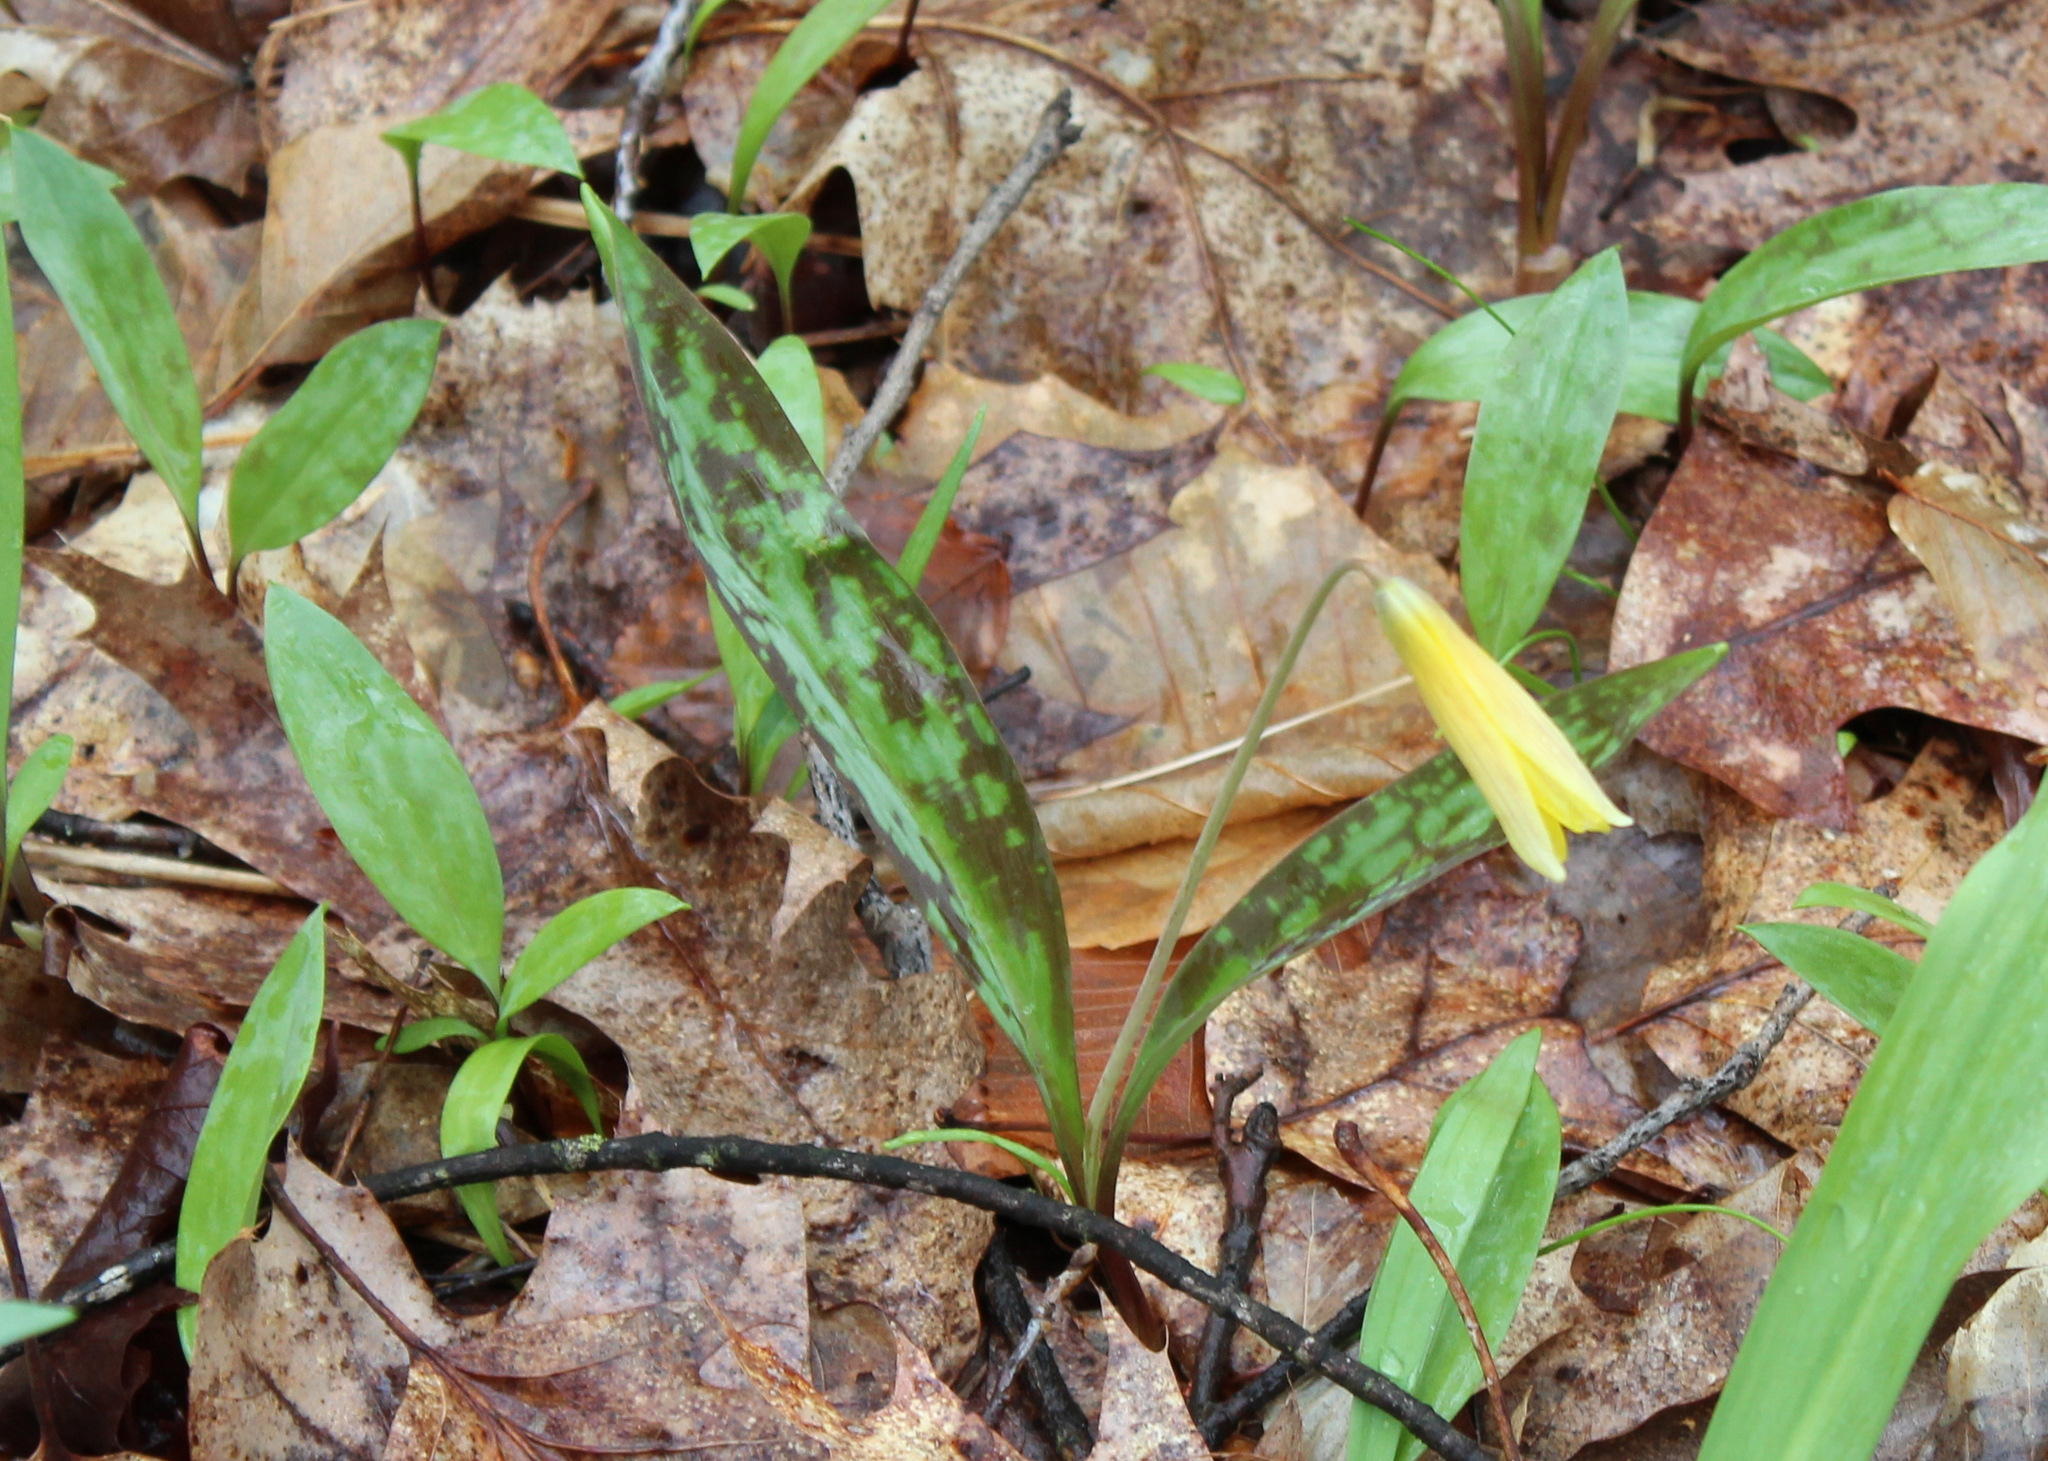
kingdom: Plantae
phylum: Tracheophyta
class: Liliopsida
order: Liliales
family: Liliaceae
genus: Erythronium
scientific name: Erythronium americanum
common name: Yellow adder's-tongue
